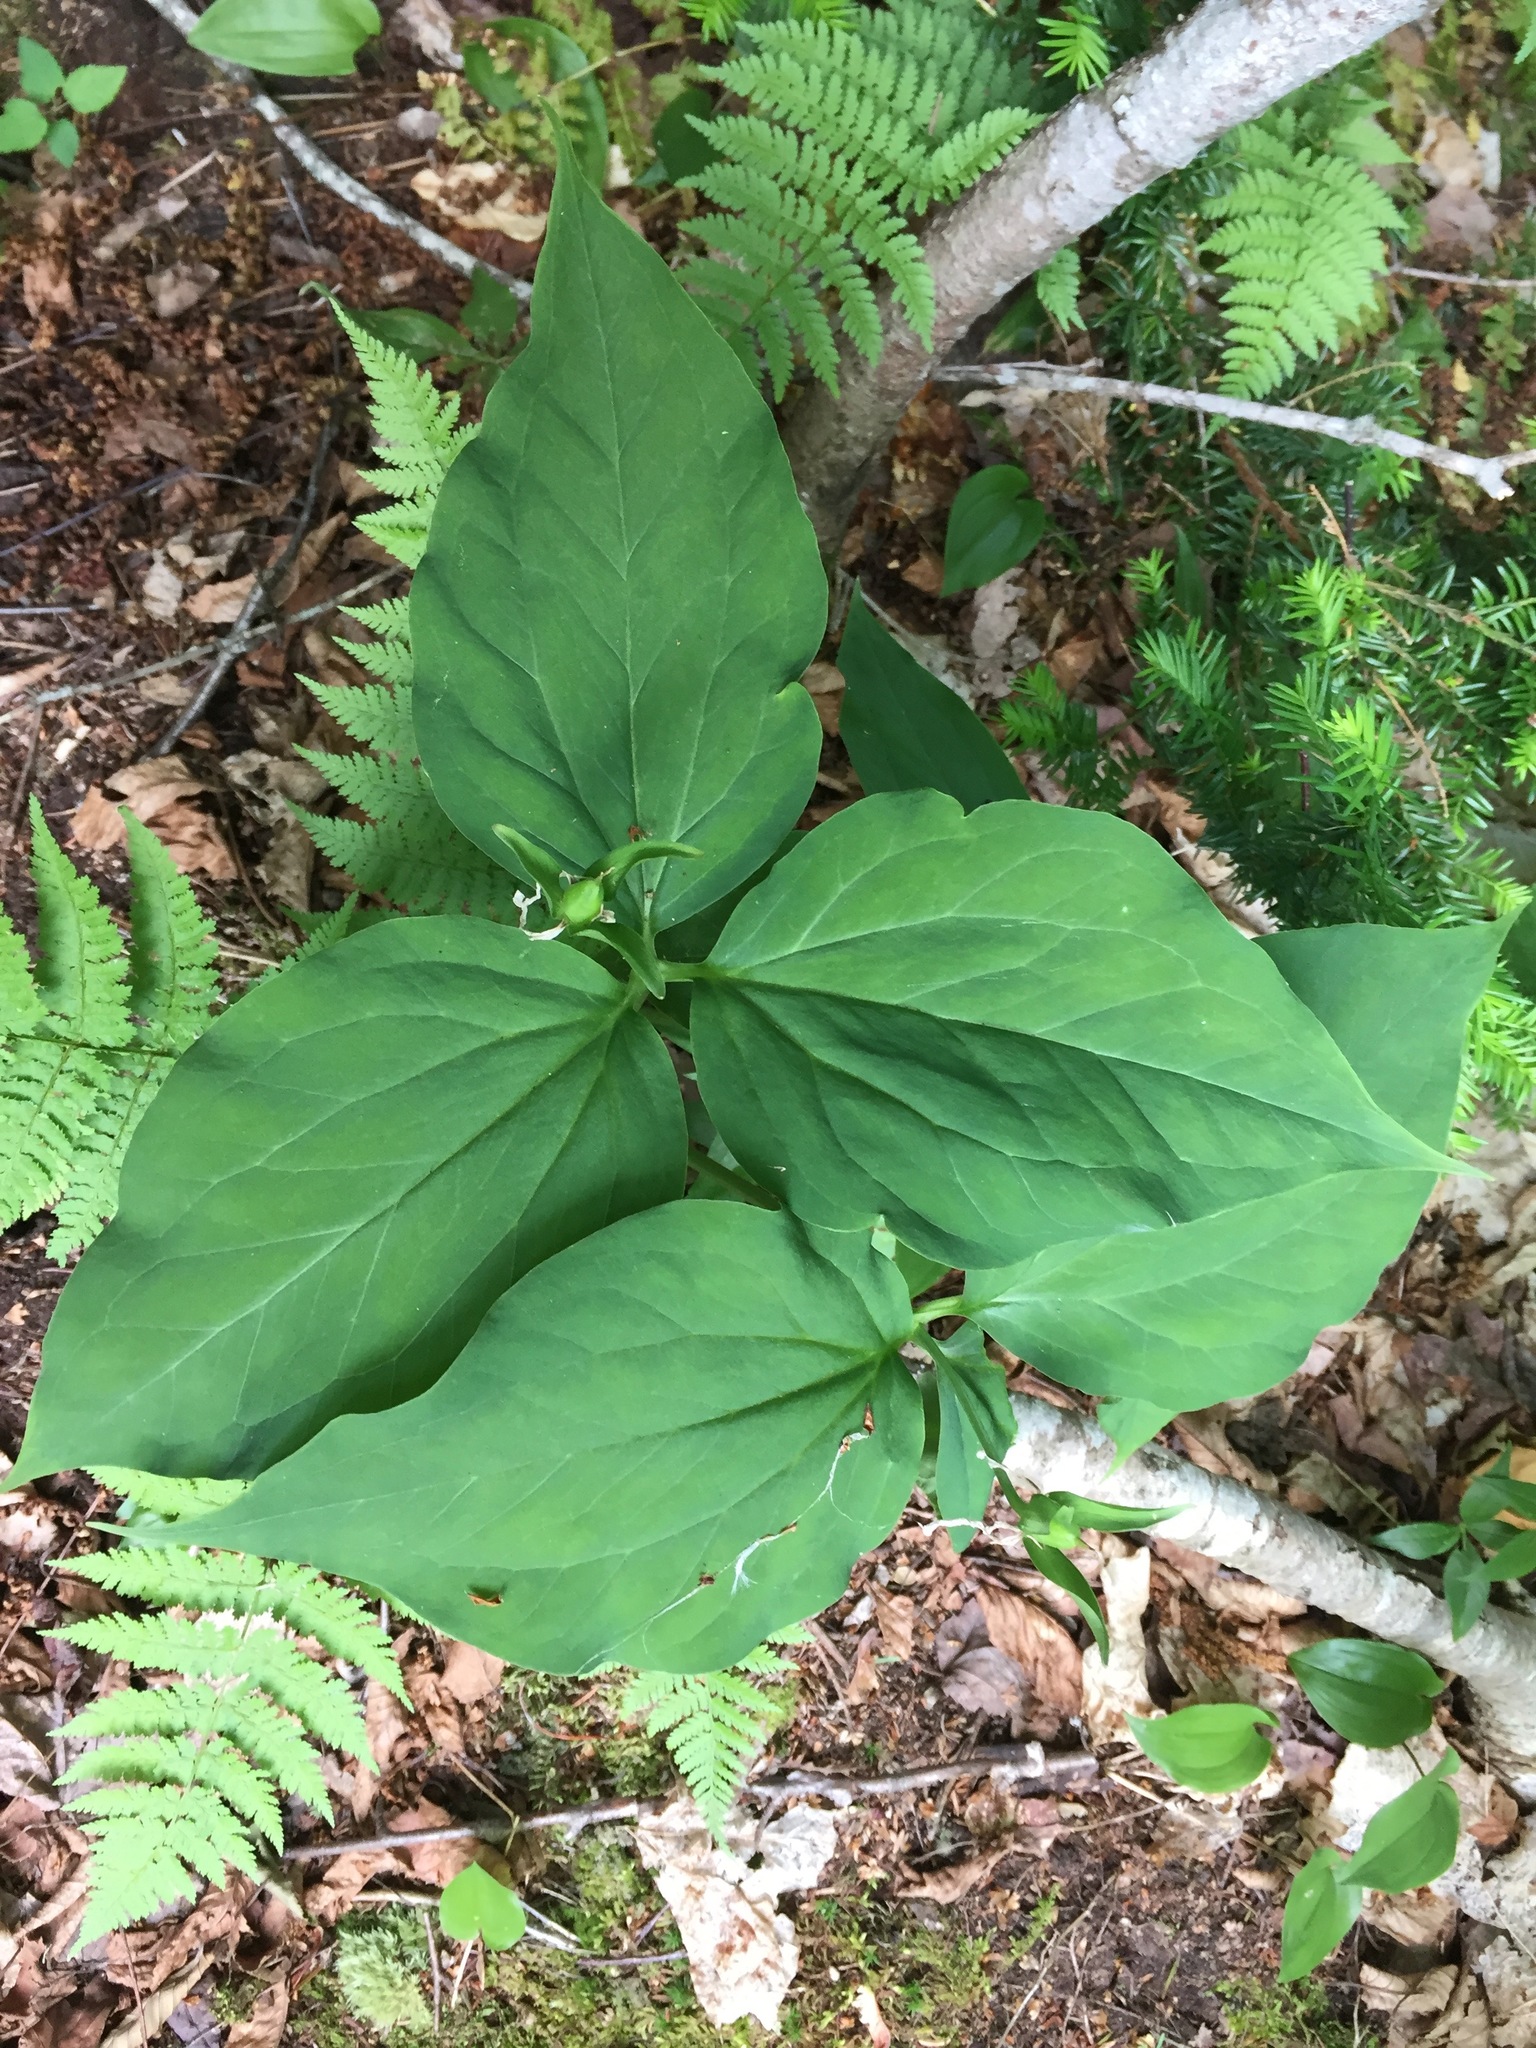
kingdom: Plantae
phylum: Tracheophyta
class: Liliopsida
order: Liliales
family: Melanthiaceae
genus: Trillium
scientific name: Trillium undulatum
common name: Paint trillium
